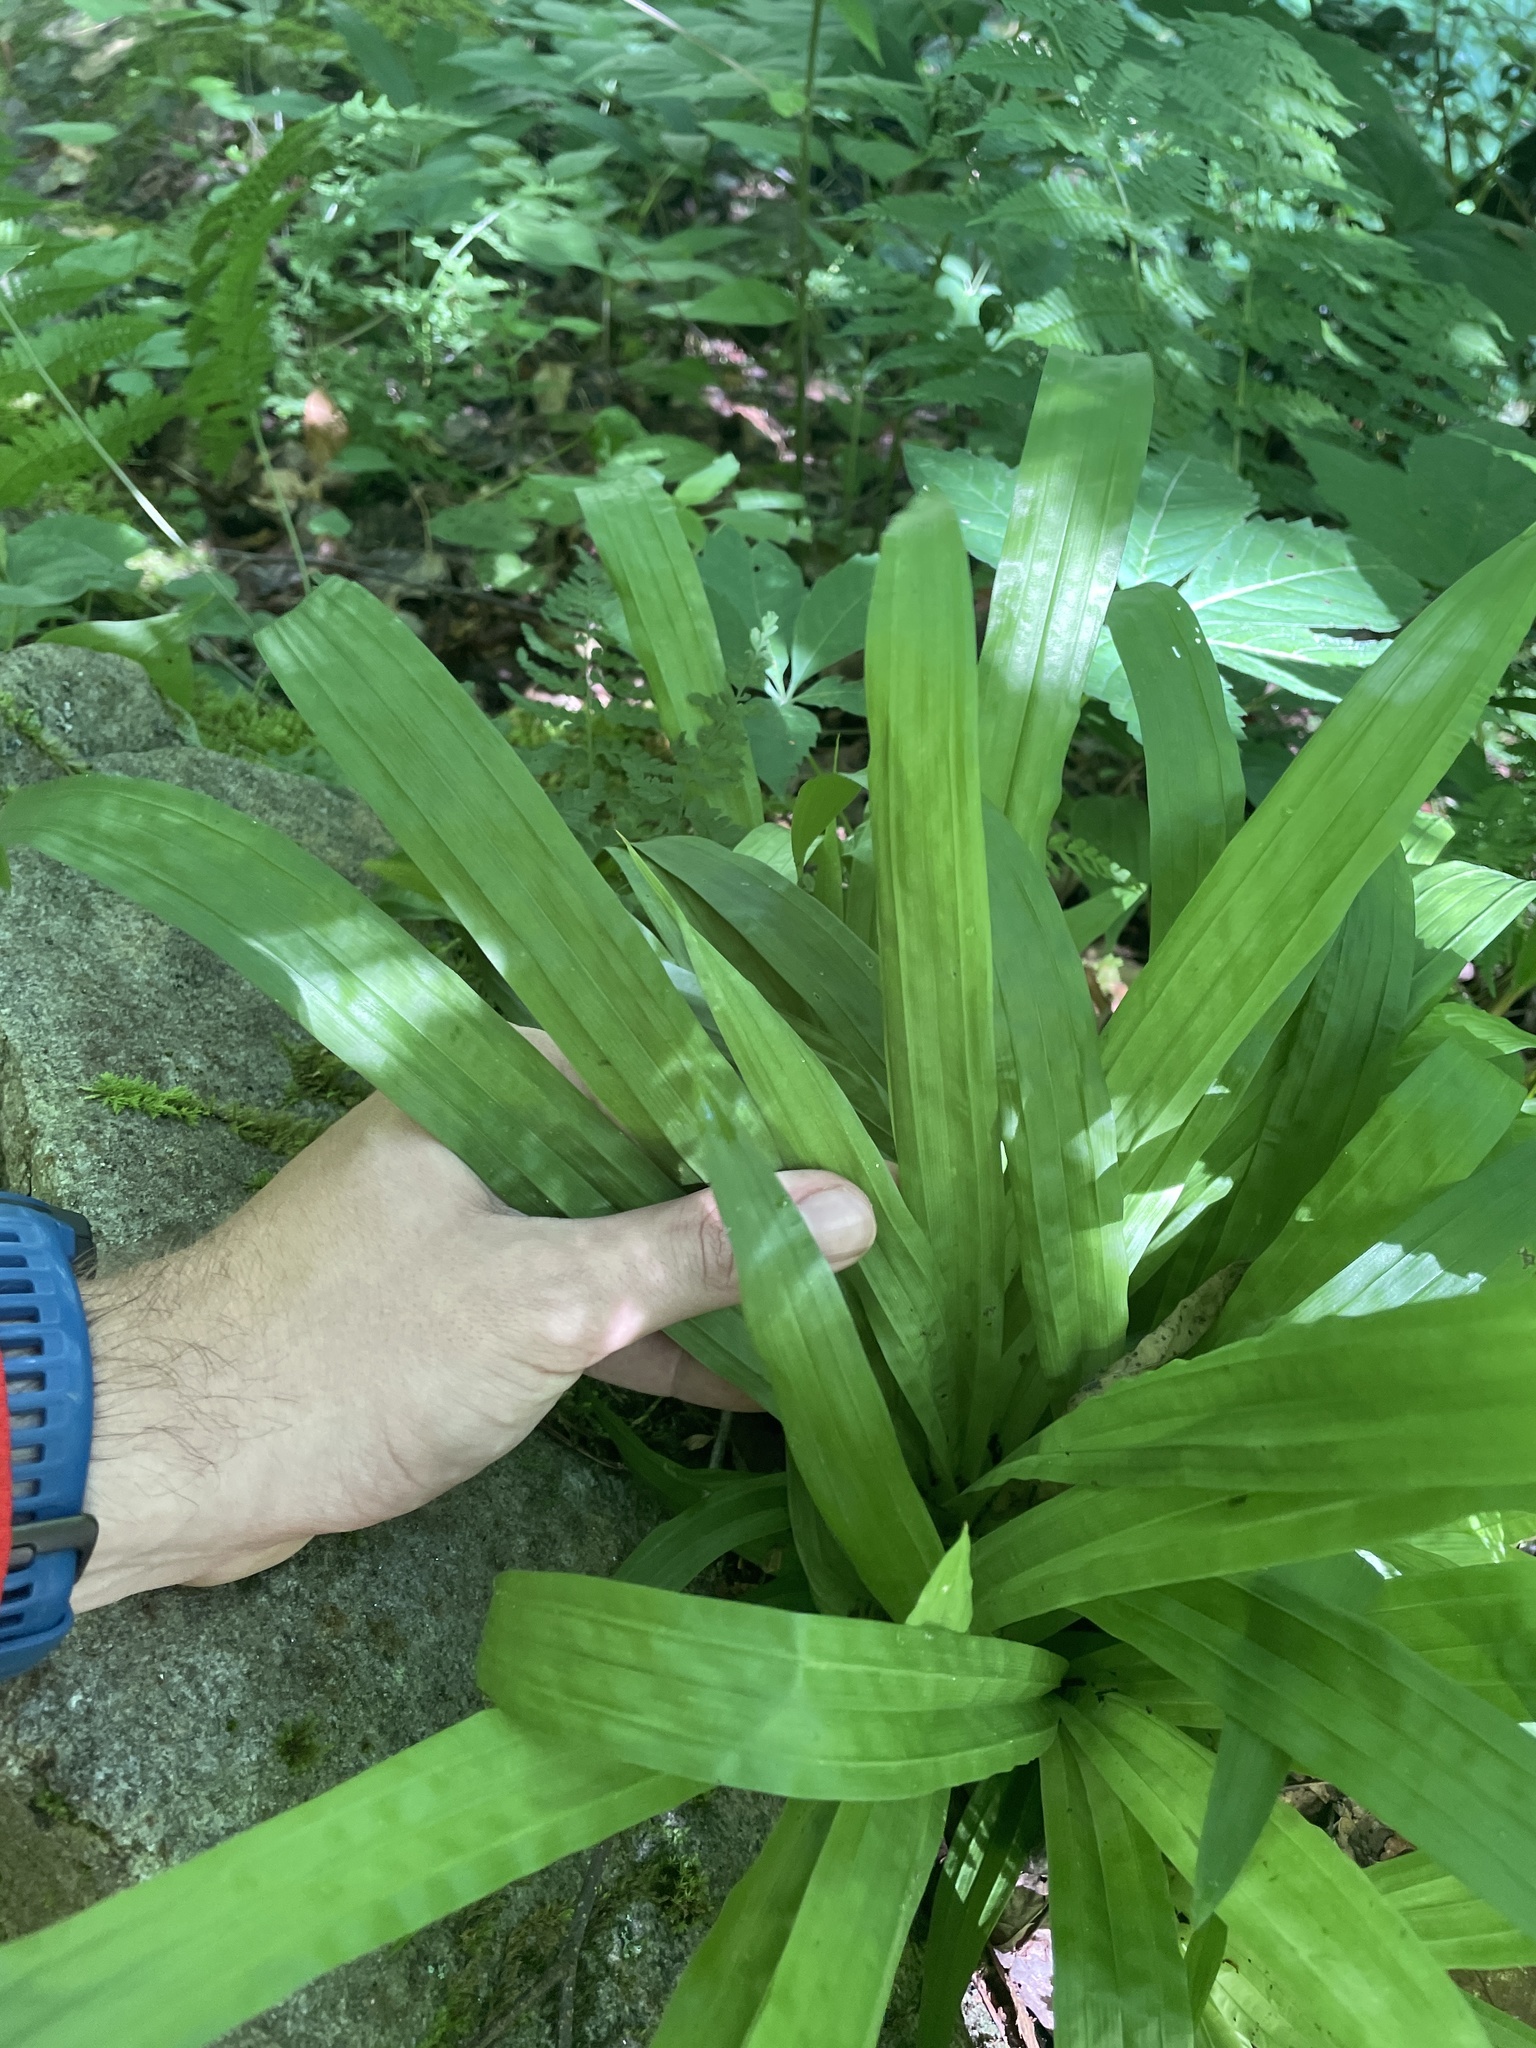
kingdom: Plantae
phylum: Tracheophyta
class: Liliopsida
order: Poales
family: Cyperaceae
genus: Carex
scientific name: Carex plantaginea
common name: Plantain-leaved sedge
